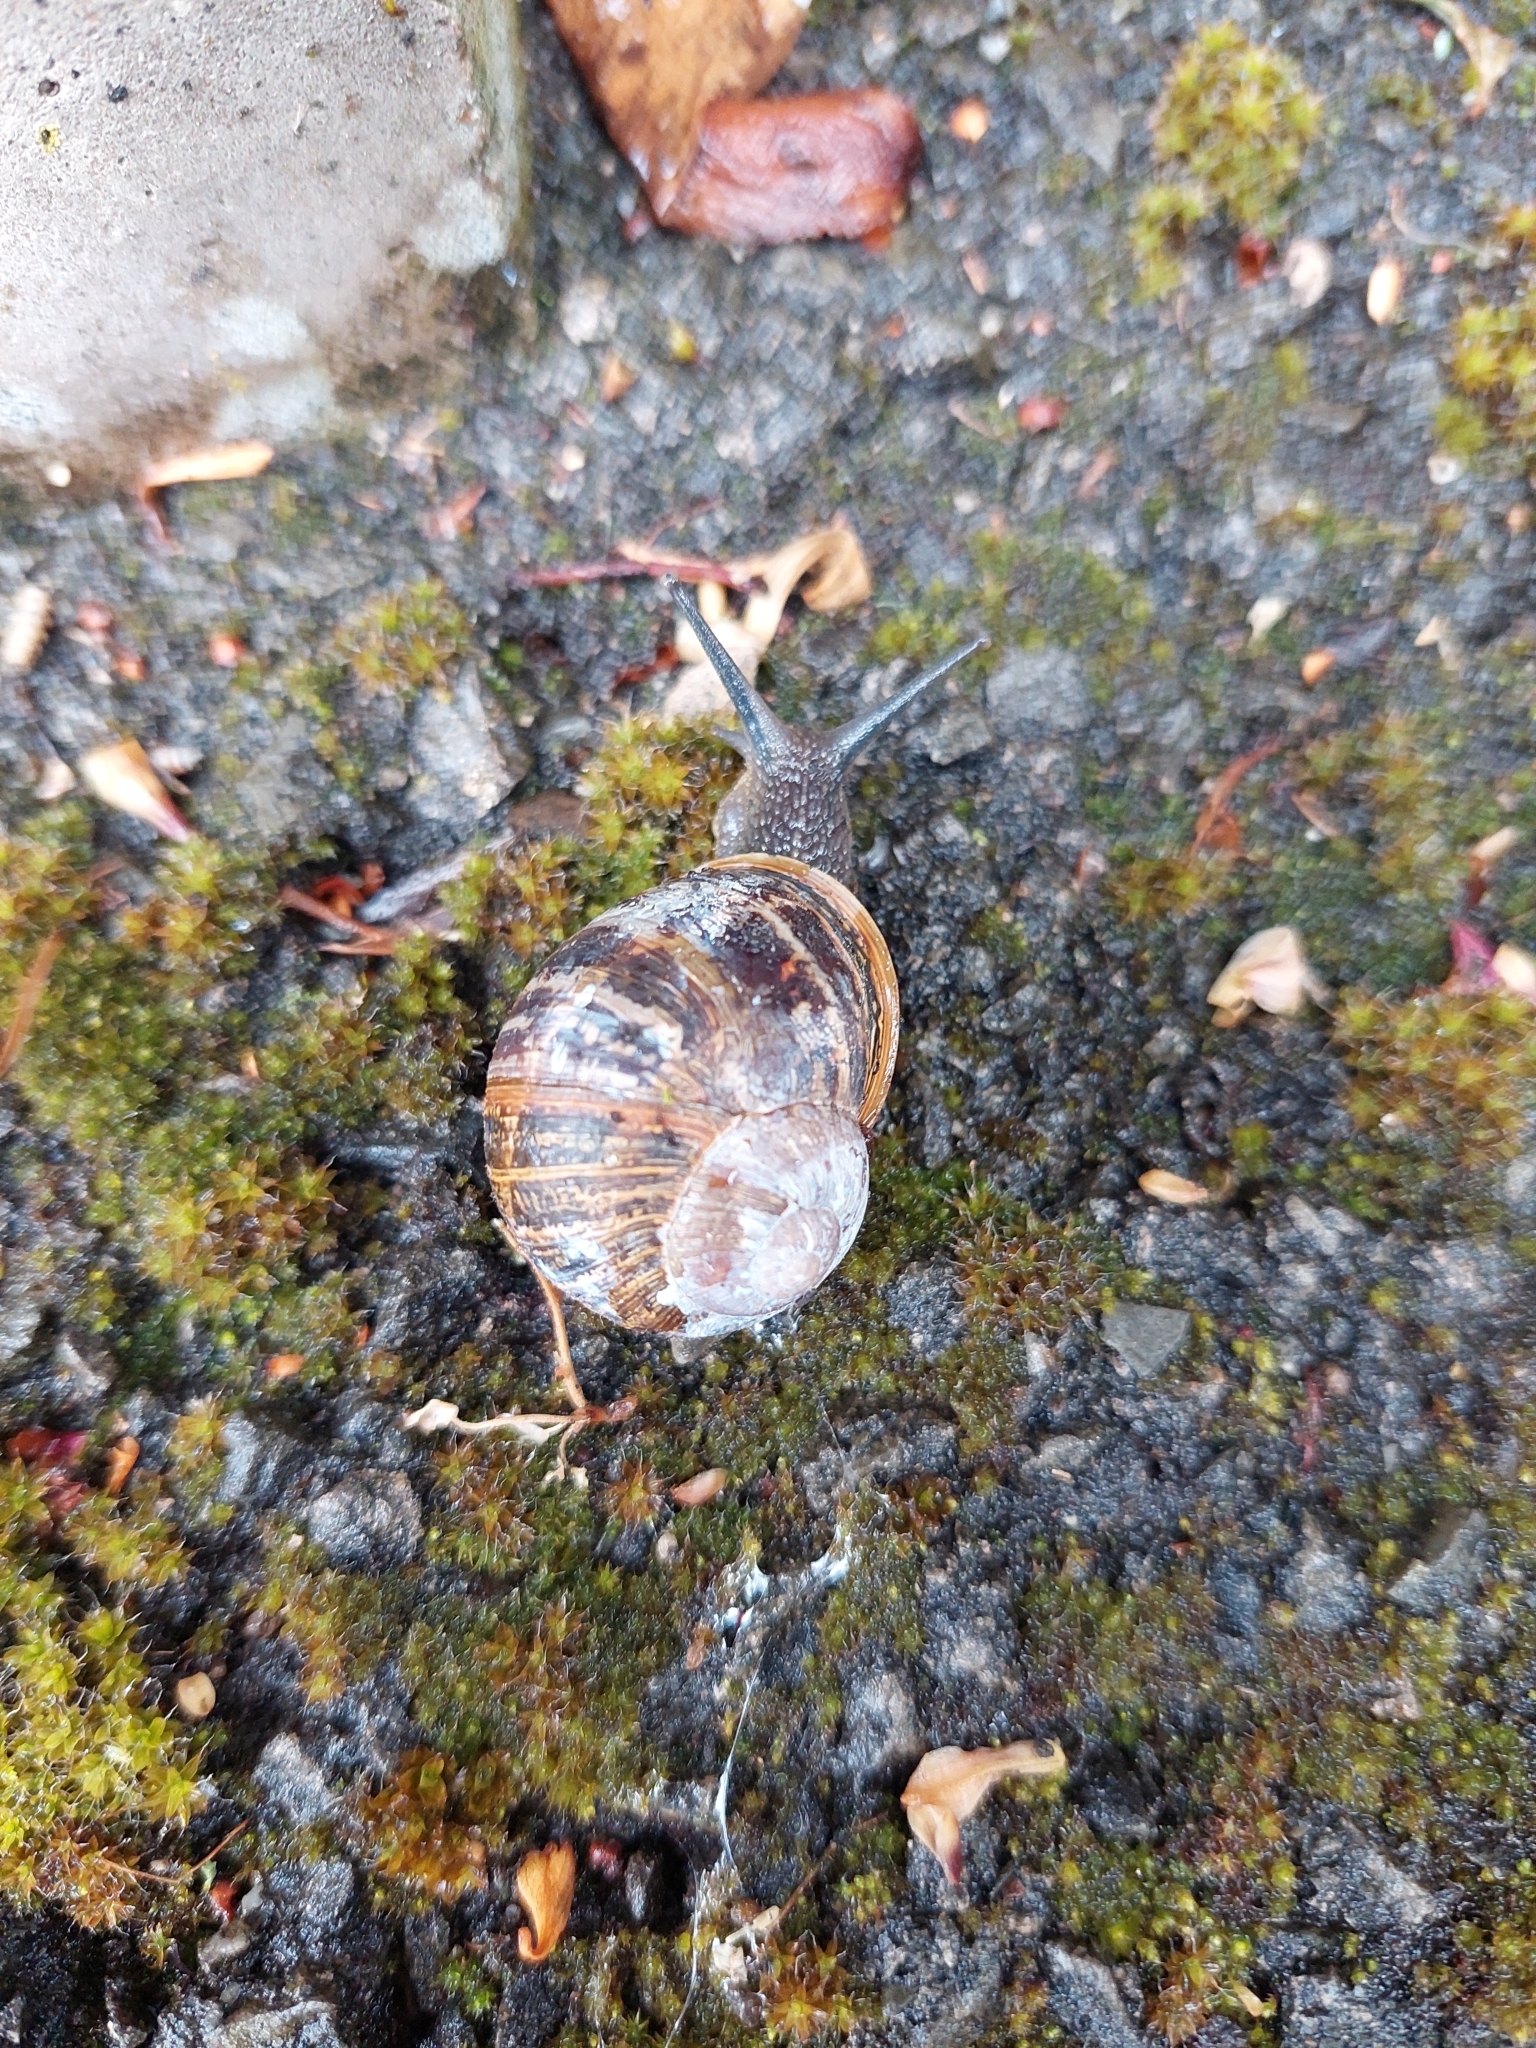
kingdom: Animalia
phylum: Mollusca
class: Gastropoda
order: Stylommatophora
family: Helicidae
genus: Cornu
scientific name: Cornu aspersum
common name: Brown garden snail
